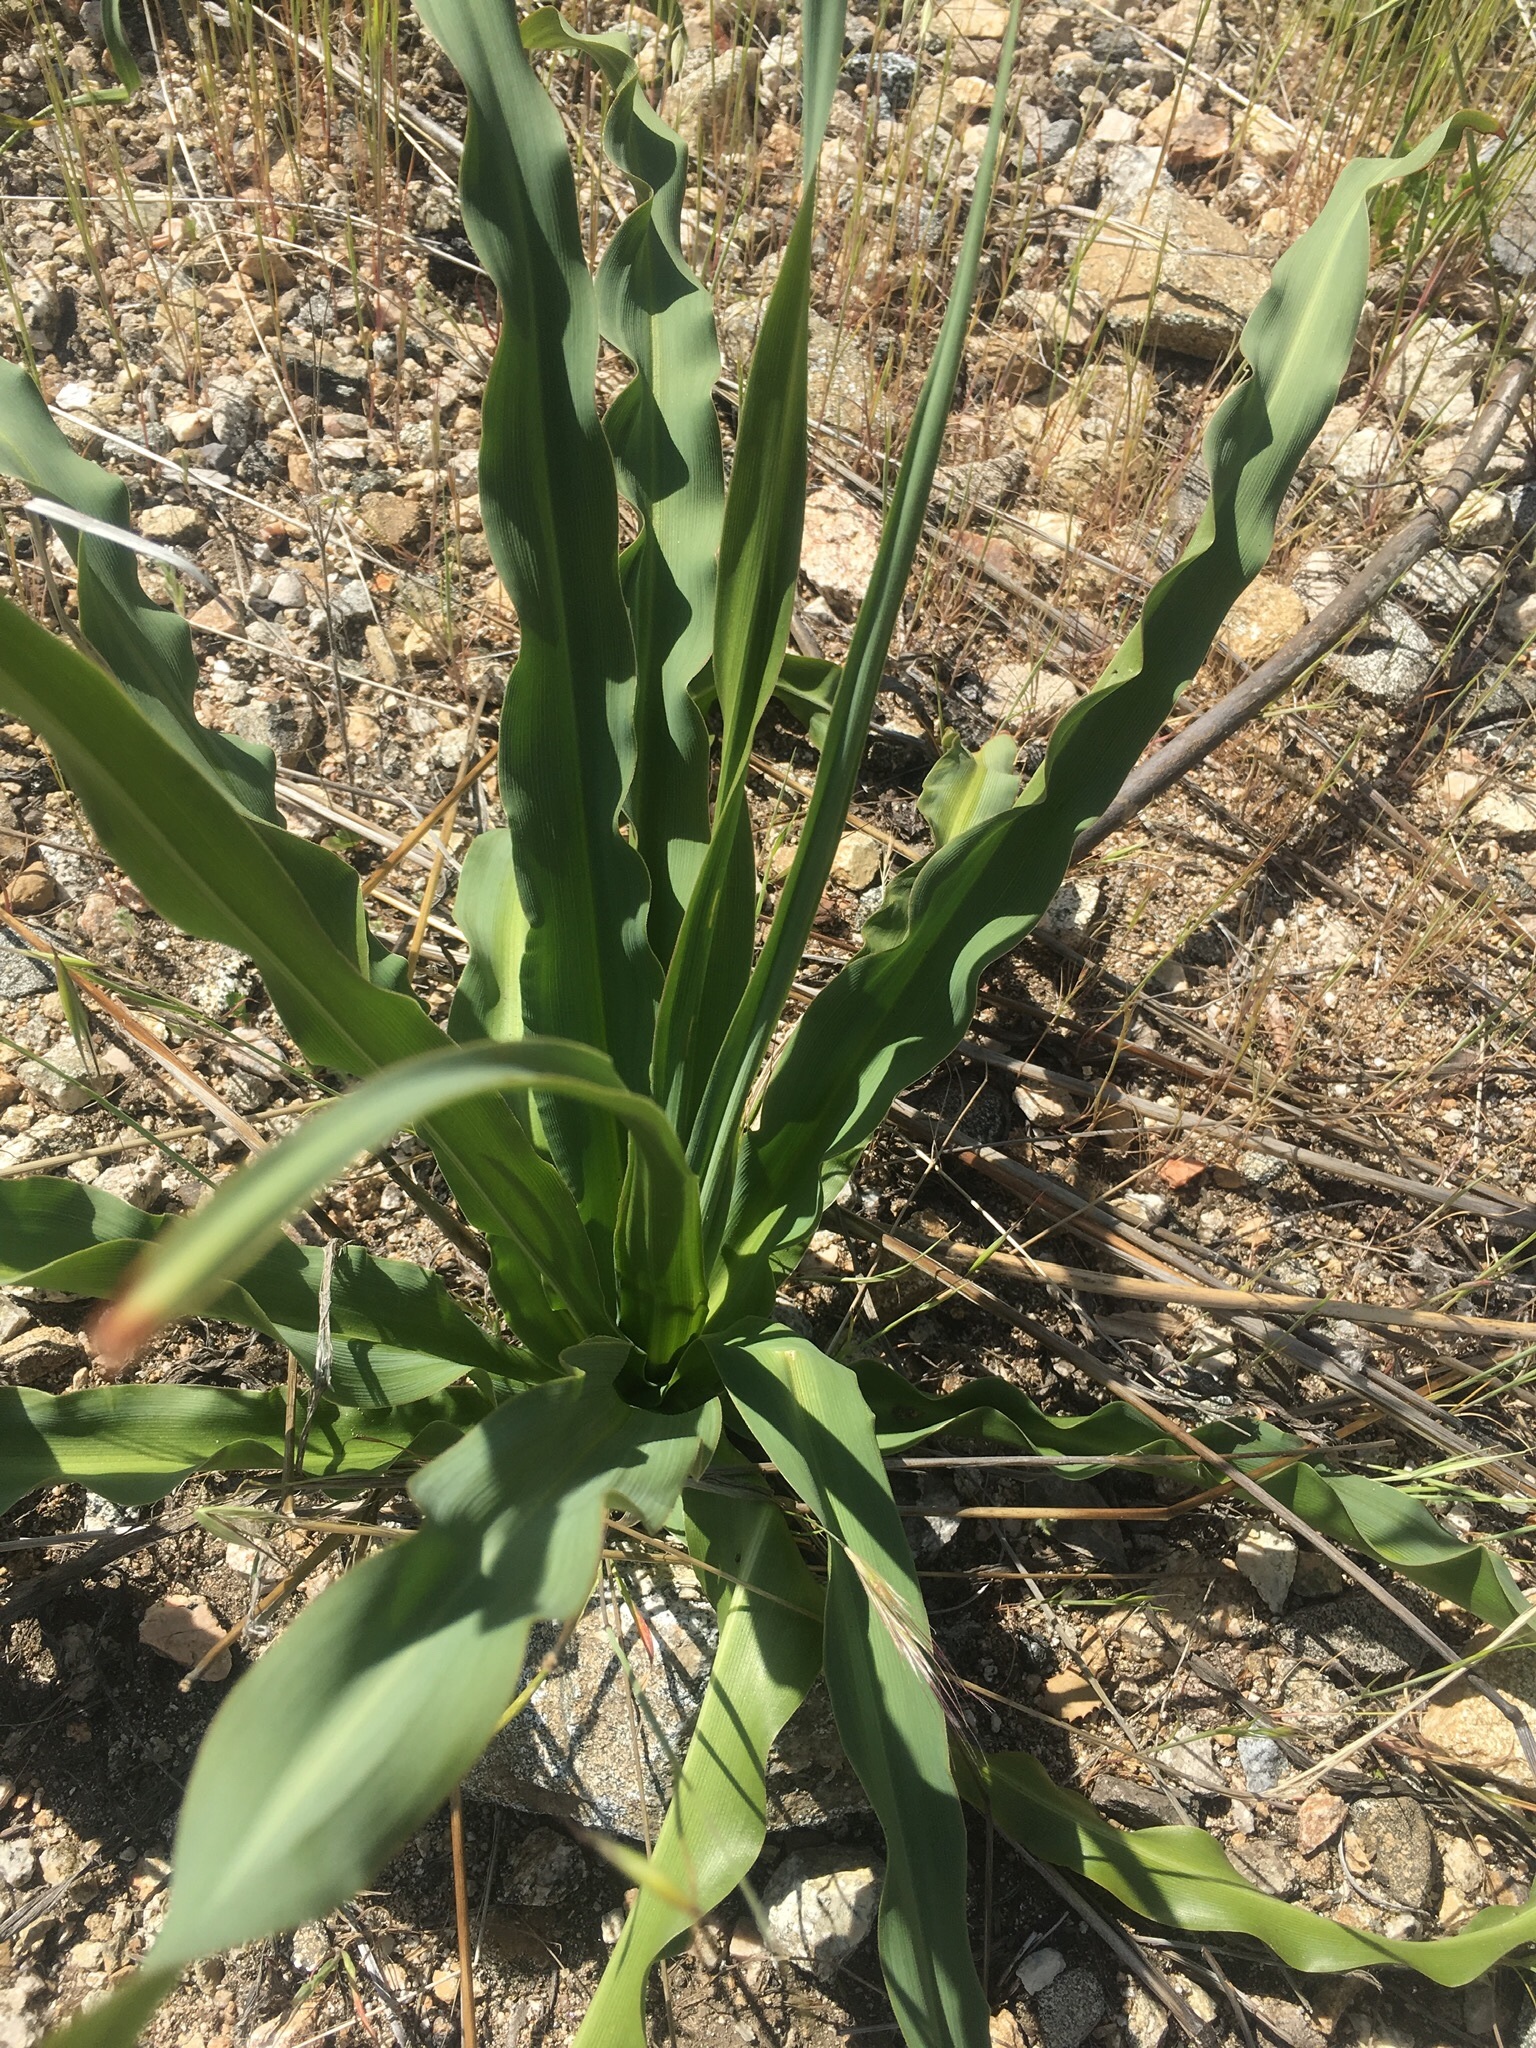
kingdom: Plantae
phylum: Tracheophyta
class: Liliopsida
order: Asparagales
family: Asparagaceae
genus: Chlorogalum
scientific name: Chlorogalum pomeridianum
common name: Amole
